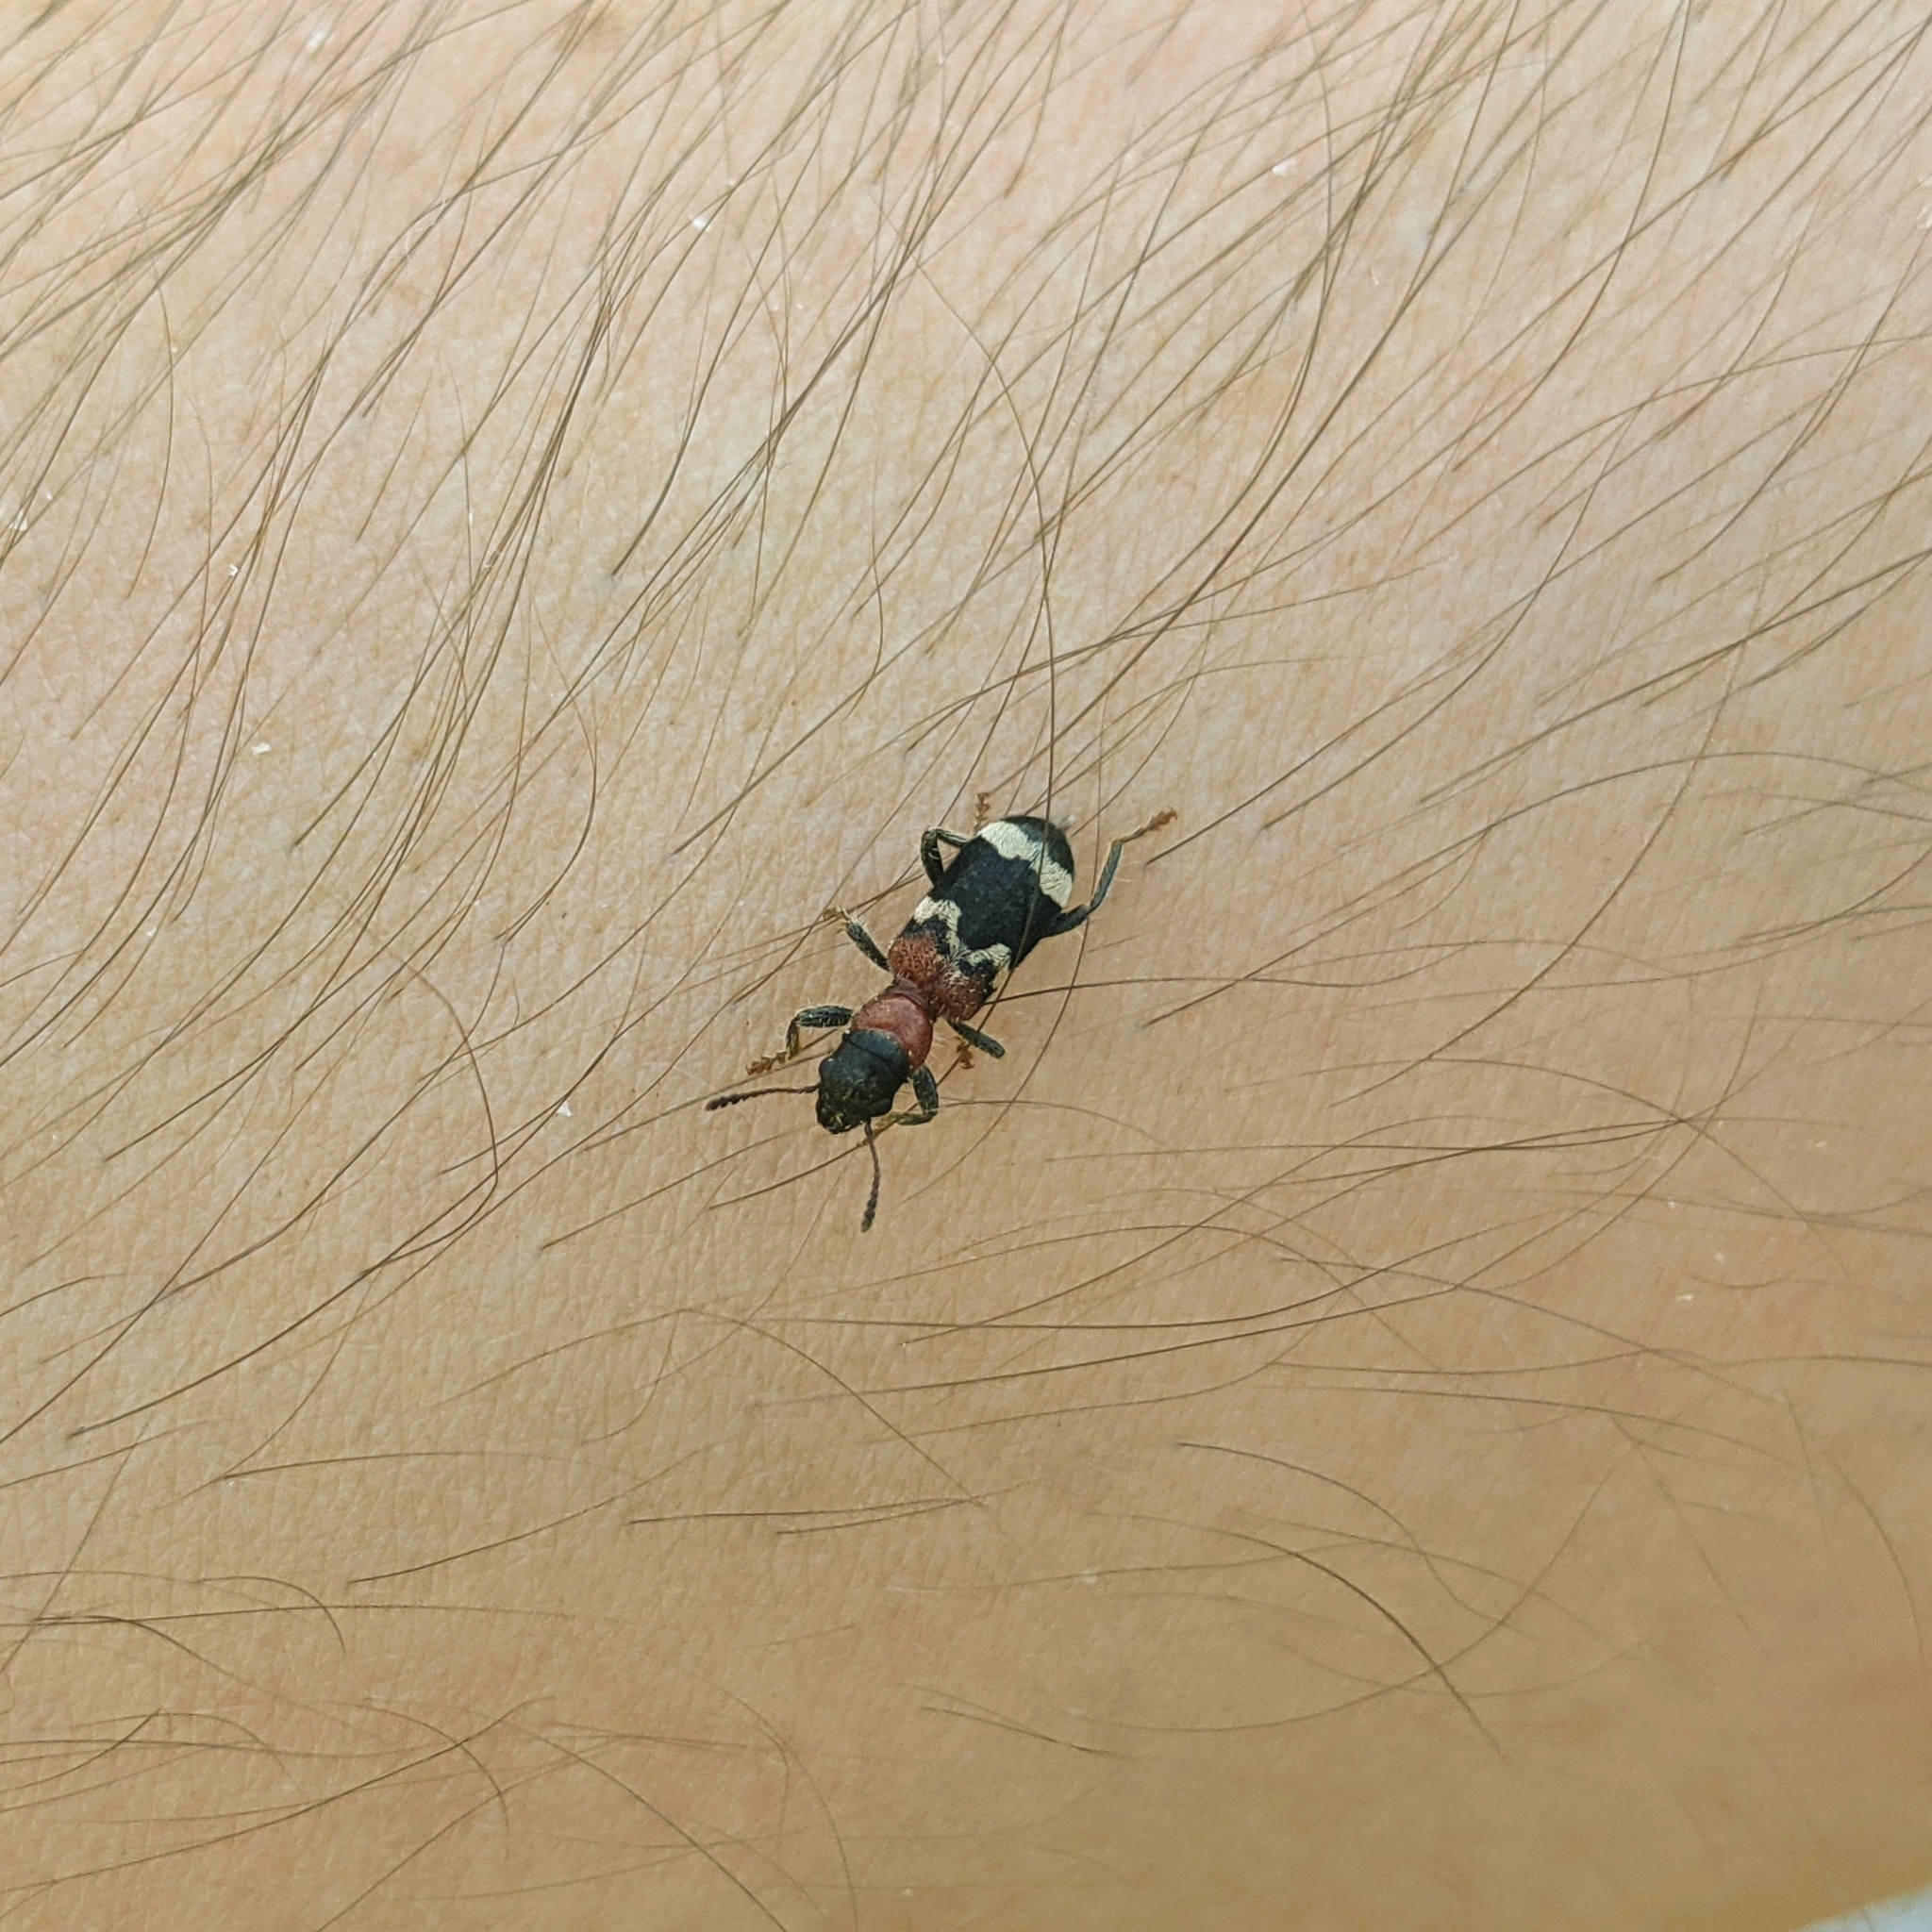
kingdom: Animalia
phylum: Arthropoda
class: Insecta
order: Coleoptera
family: Cleridae
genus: Thanasimus
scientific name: Thanasimus formicarius
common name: Ant beetle
